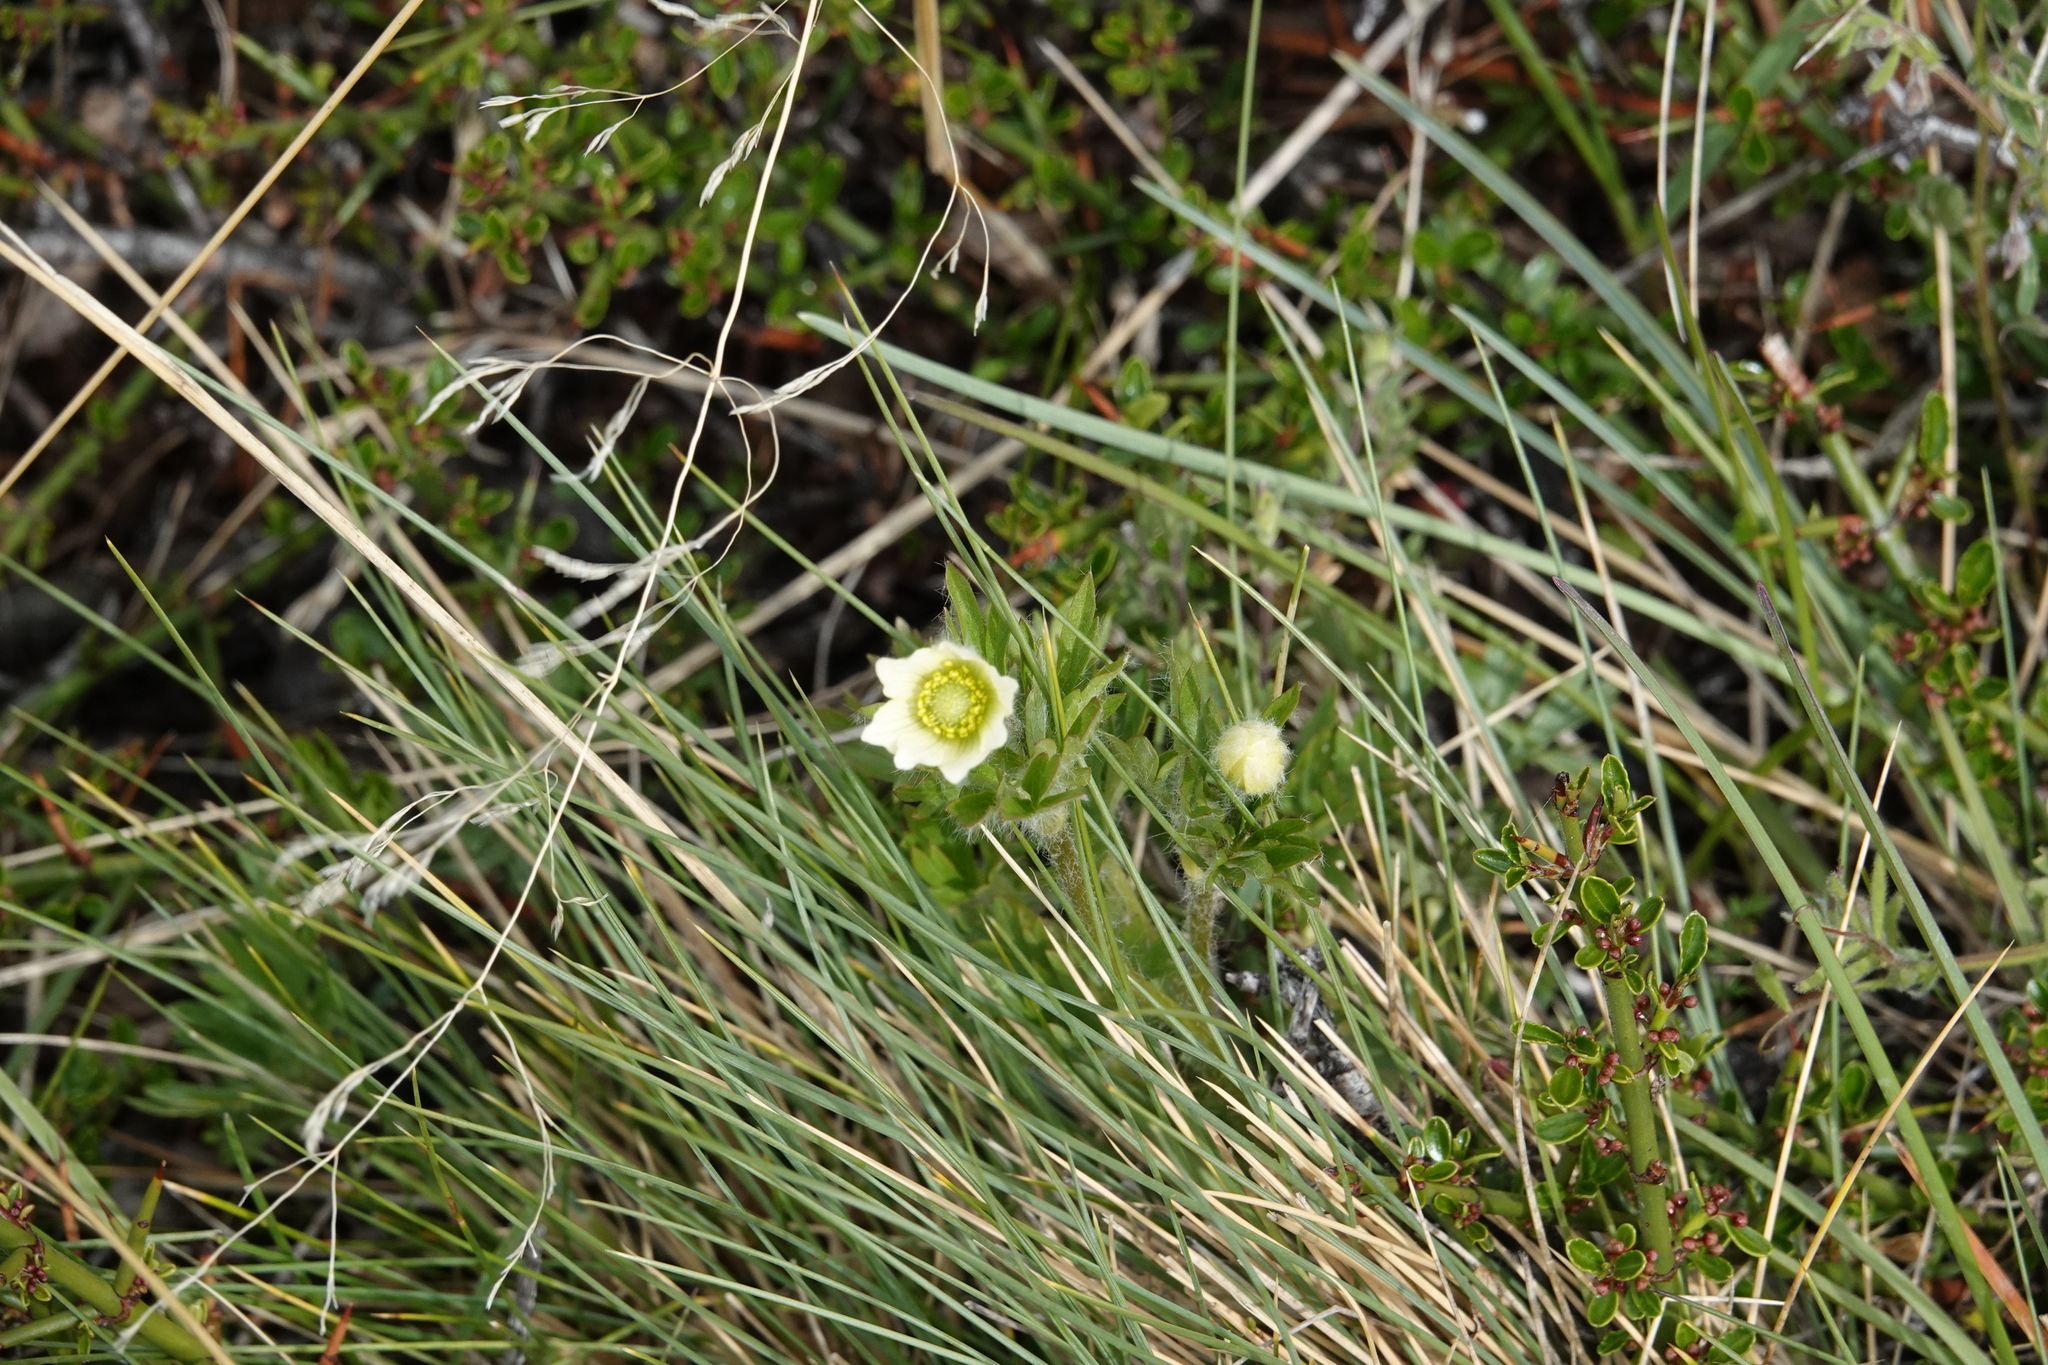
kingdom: Plantae
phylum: Tracheophyta
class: Magnoliopsida
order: Ranunculales
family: Ranunculaceae
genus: Anemone
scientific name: Anemone multifida
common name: Bird's-foot anemone
